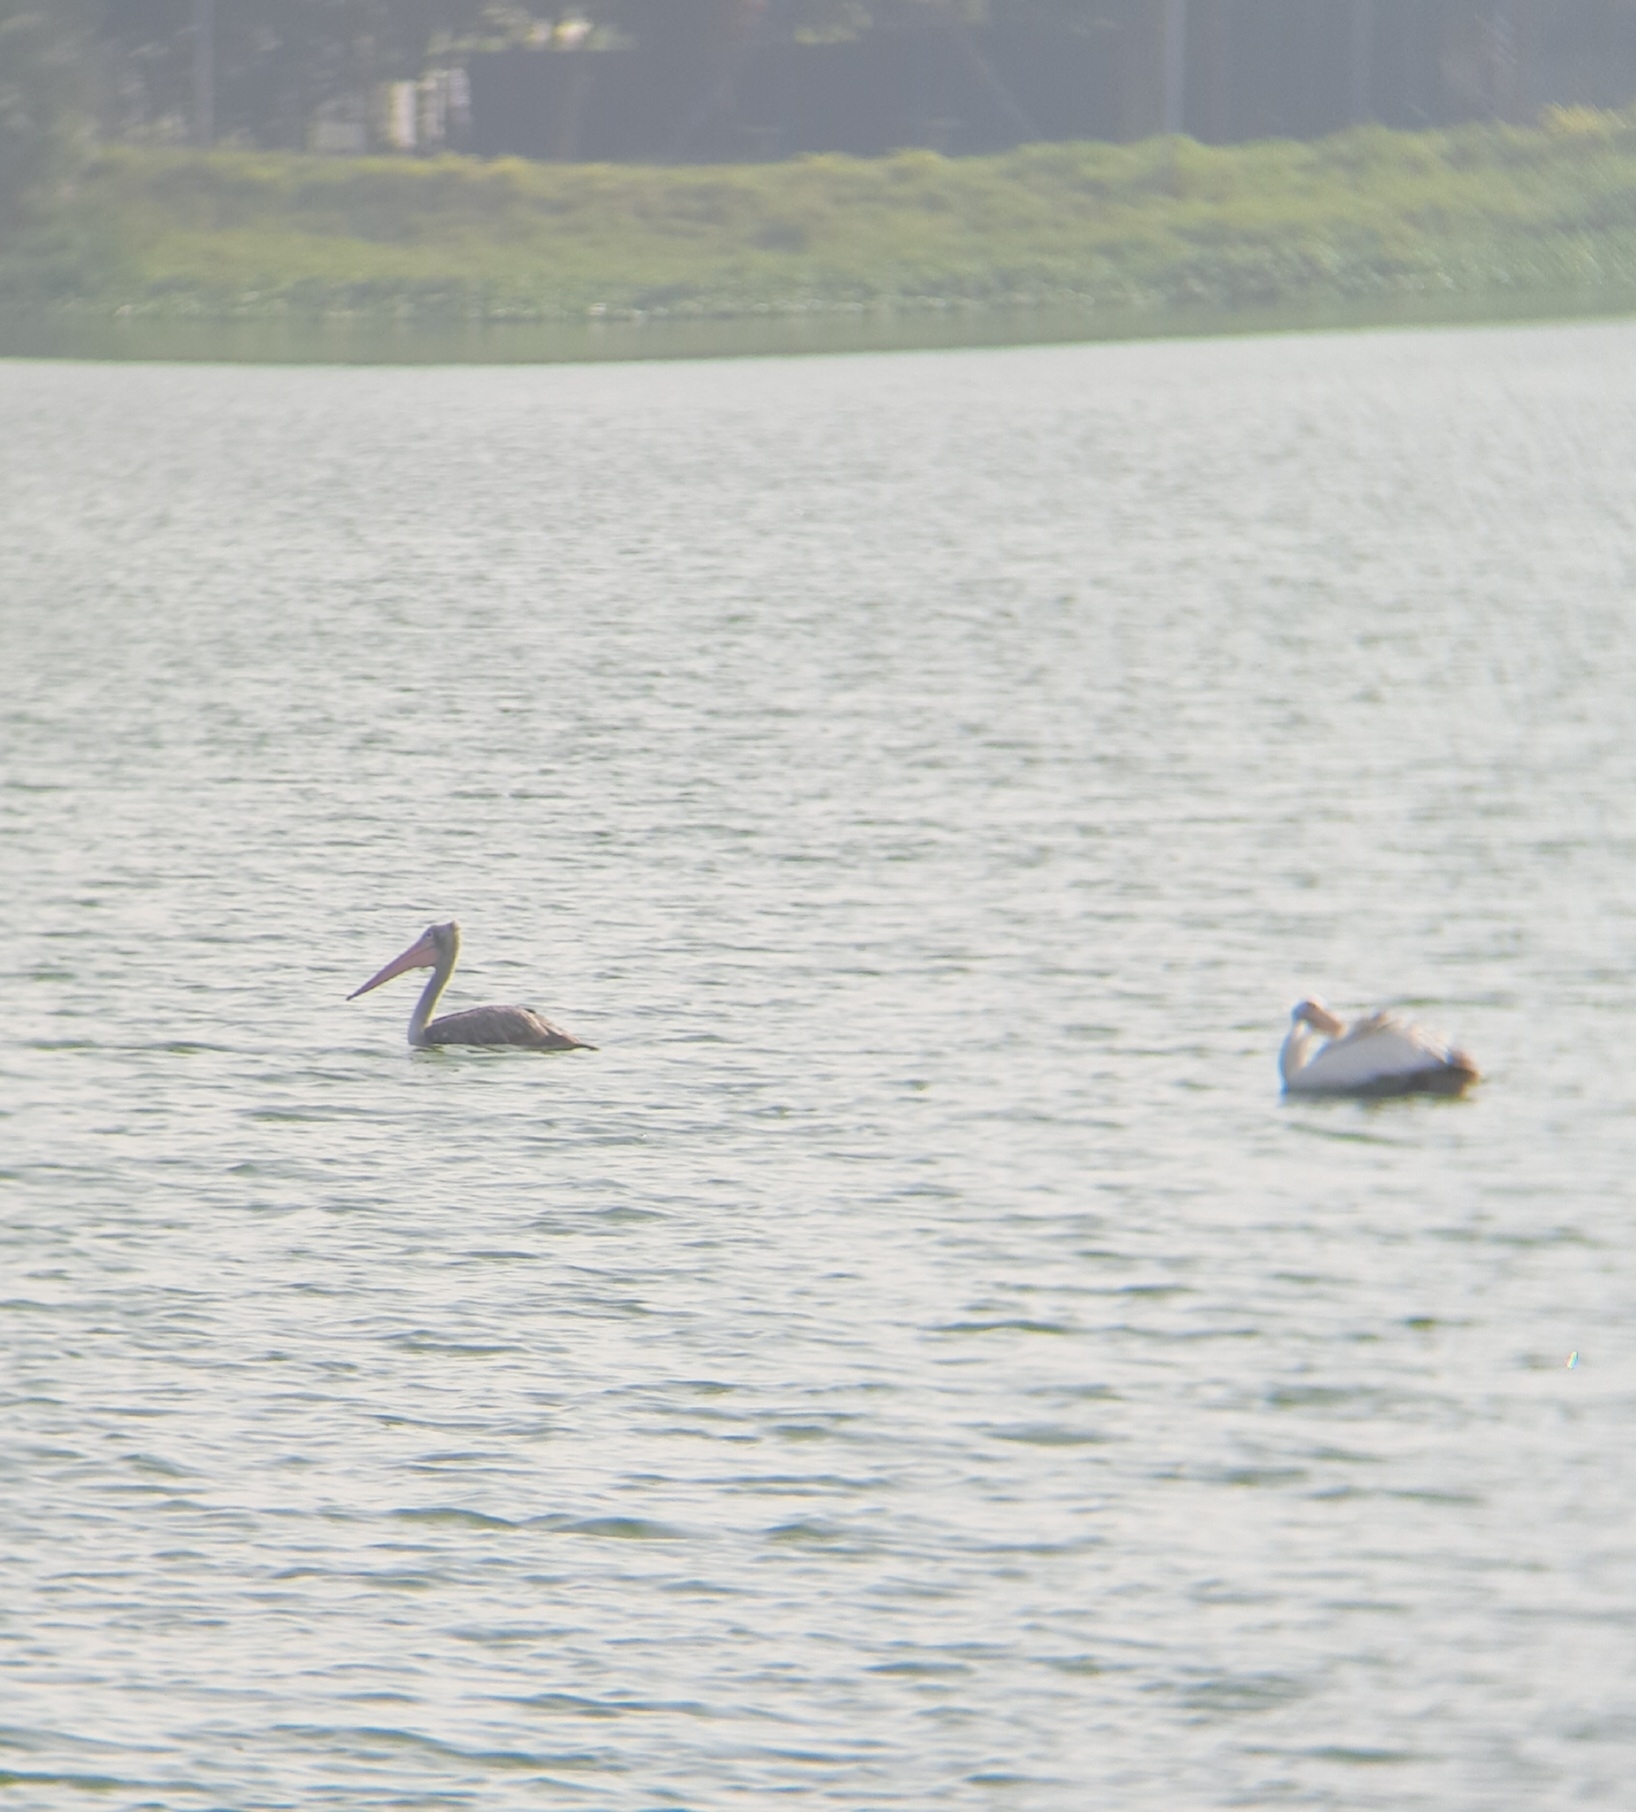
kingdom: Animalia
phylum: Chordata
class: Aves
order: Pelecaniformes
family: Pelecanidae
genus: Pelecanus
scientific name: Pelecanus philippensis
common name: Spot-billed pelican
